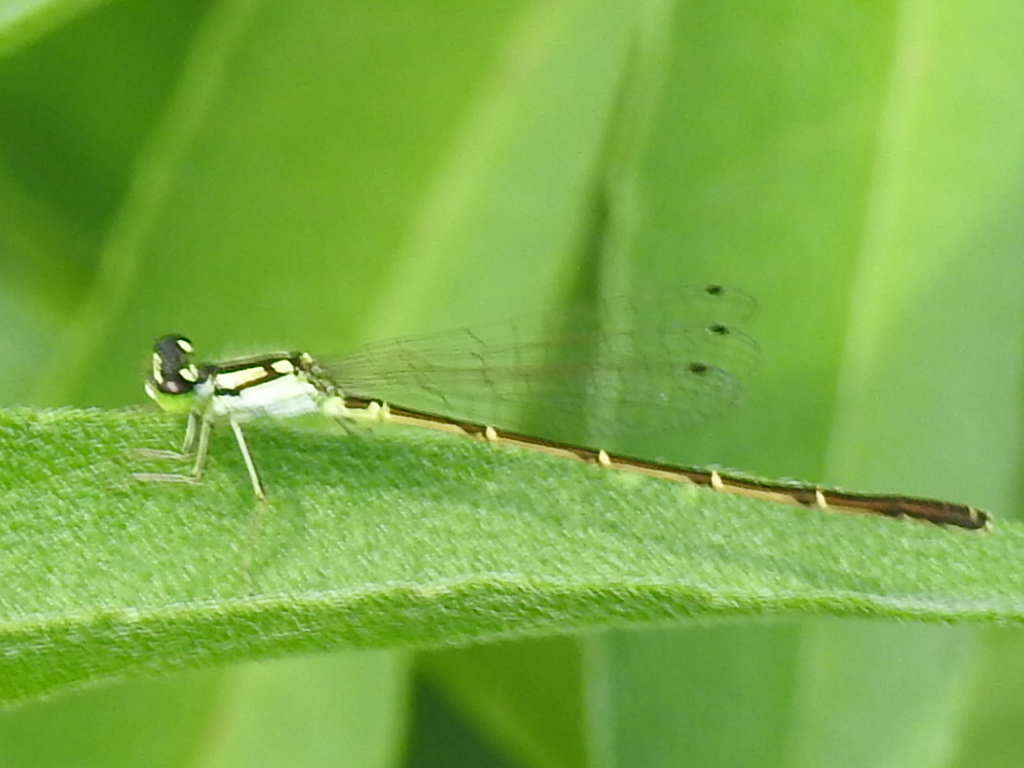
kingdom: Animalia
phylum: Arthropoda
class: Insecta
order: Odonata
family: Coenagrionidae
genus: Ischnura
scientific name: Ischnura posita
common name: Fragile forktail
